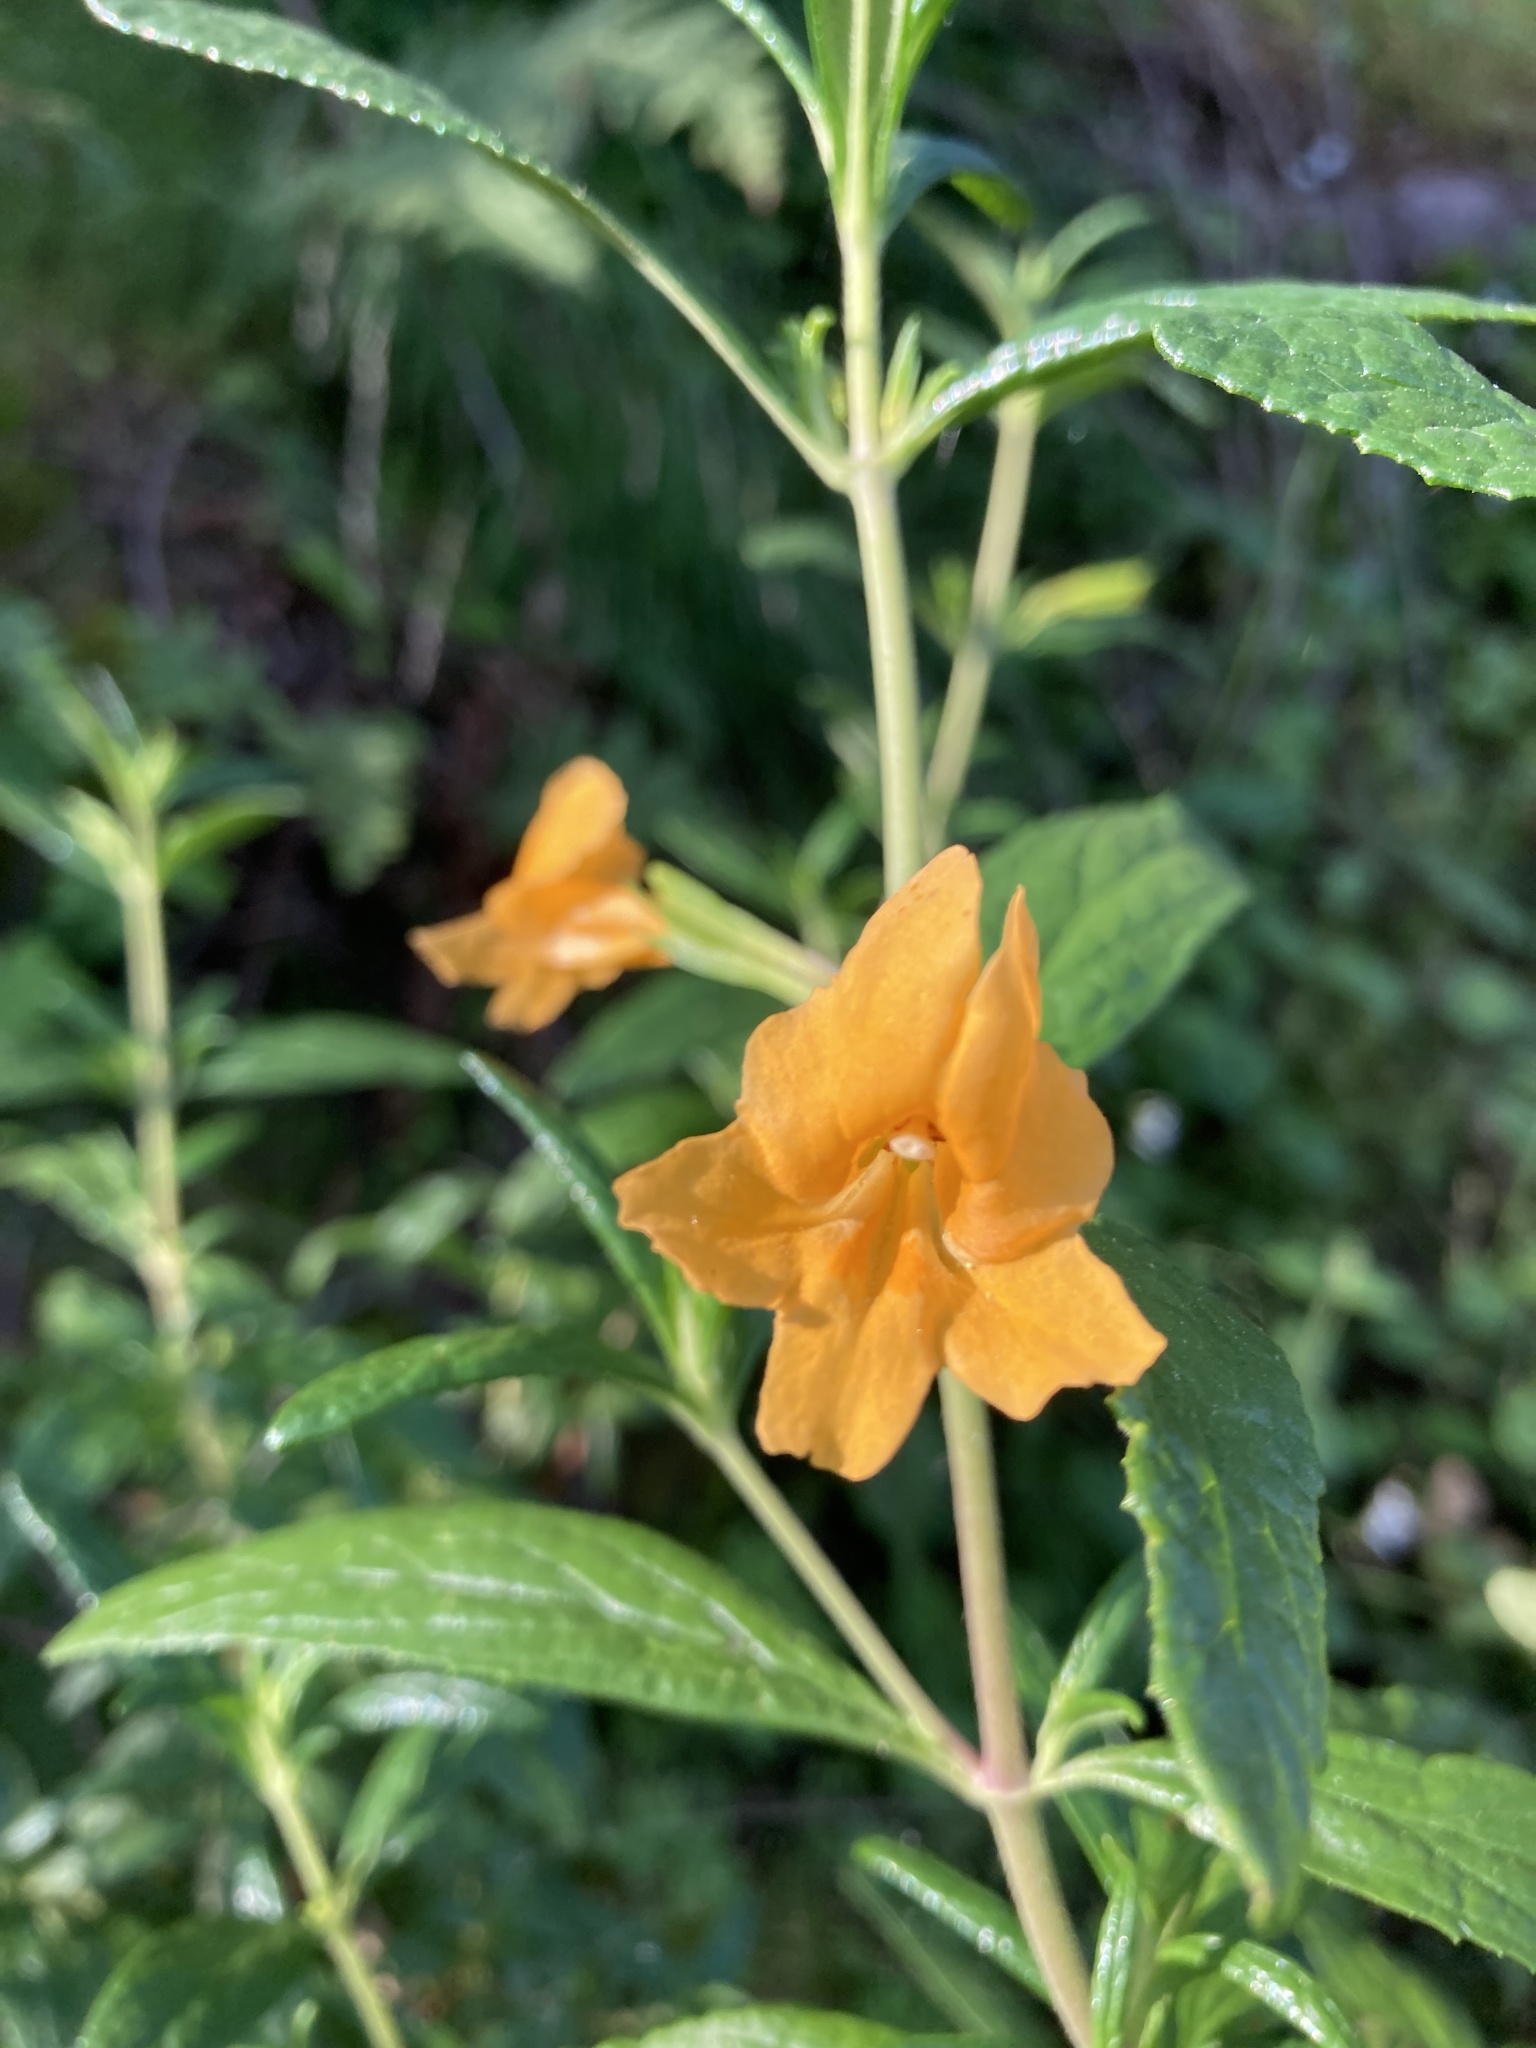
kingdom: Plantae
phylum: Tracheophyta
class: Magnoliopsida
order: Lamiales
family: Phrymaceae
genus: Diplacus
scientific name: Diplacus aurantiacus
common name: Bush monkey-flower
